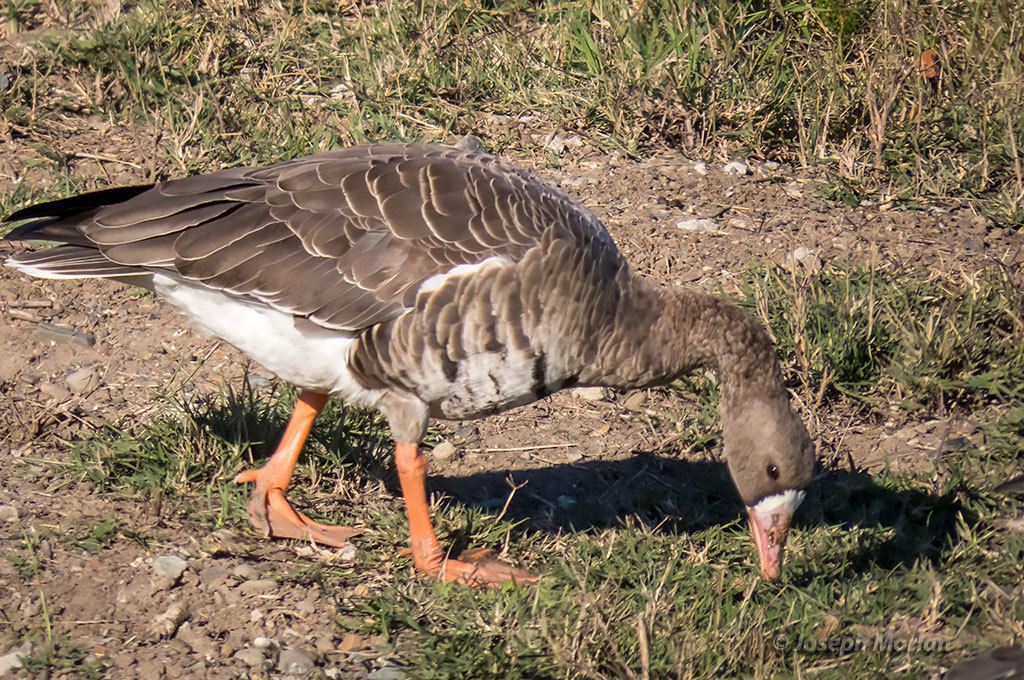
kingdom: Animalia
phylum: Chordata
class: Aves
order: Anseriformes
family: Anatidae
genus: Anser
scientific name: Anser albifrons
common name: Greater white-fronted goose
